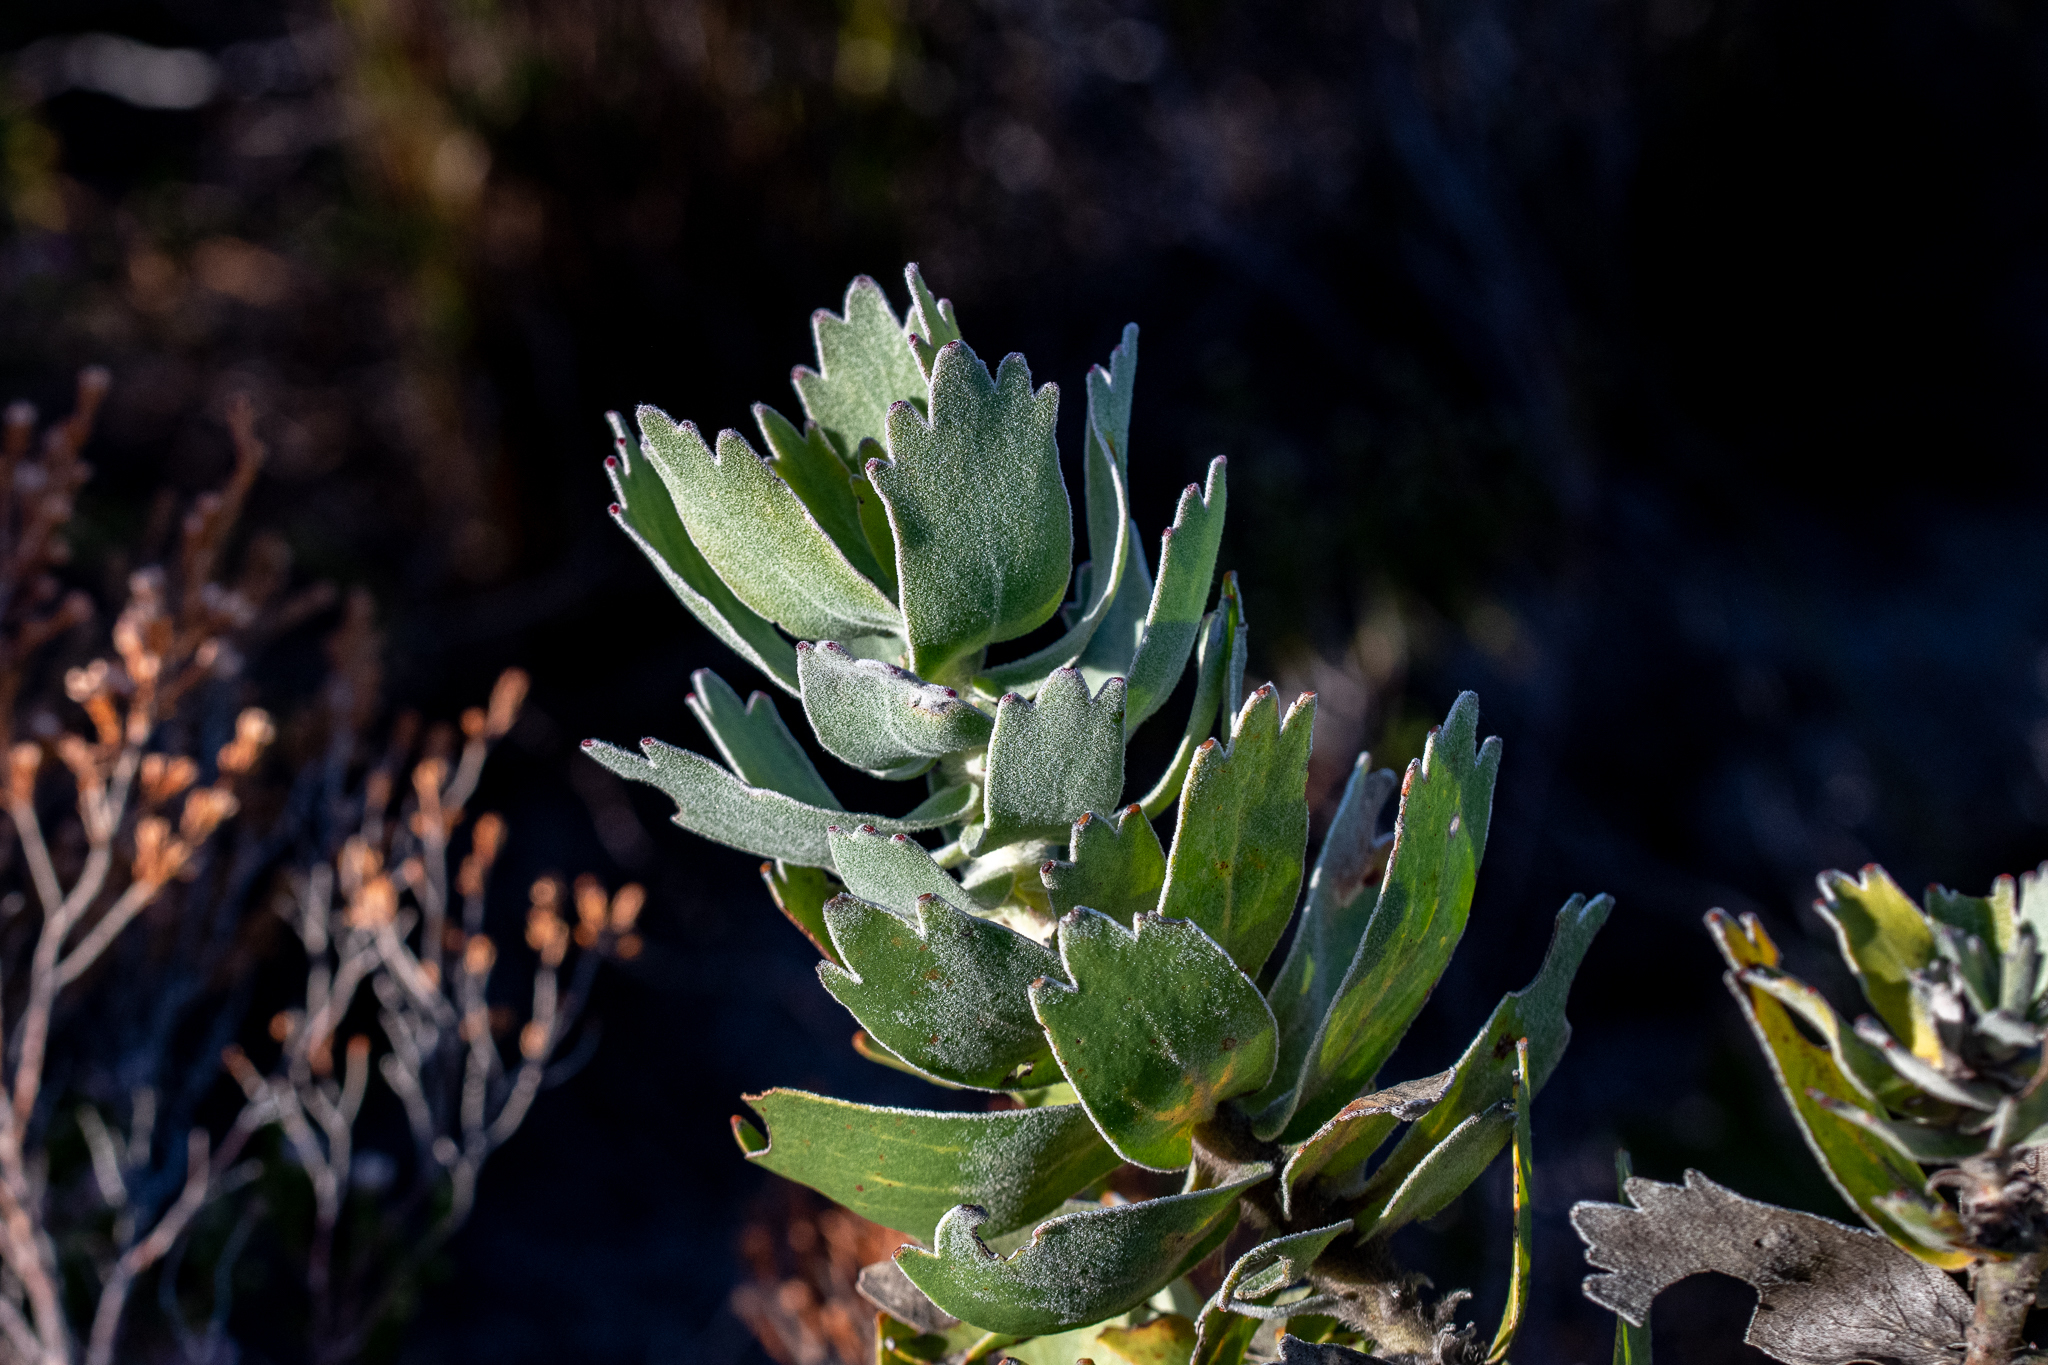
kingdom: Plantae
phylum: Tracheophyta
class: Magnoliopsida
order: Proteales
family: Proteaceae
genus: Leucospermum
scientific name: Leucospermum patersonii
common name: False tree pincushion
